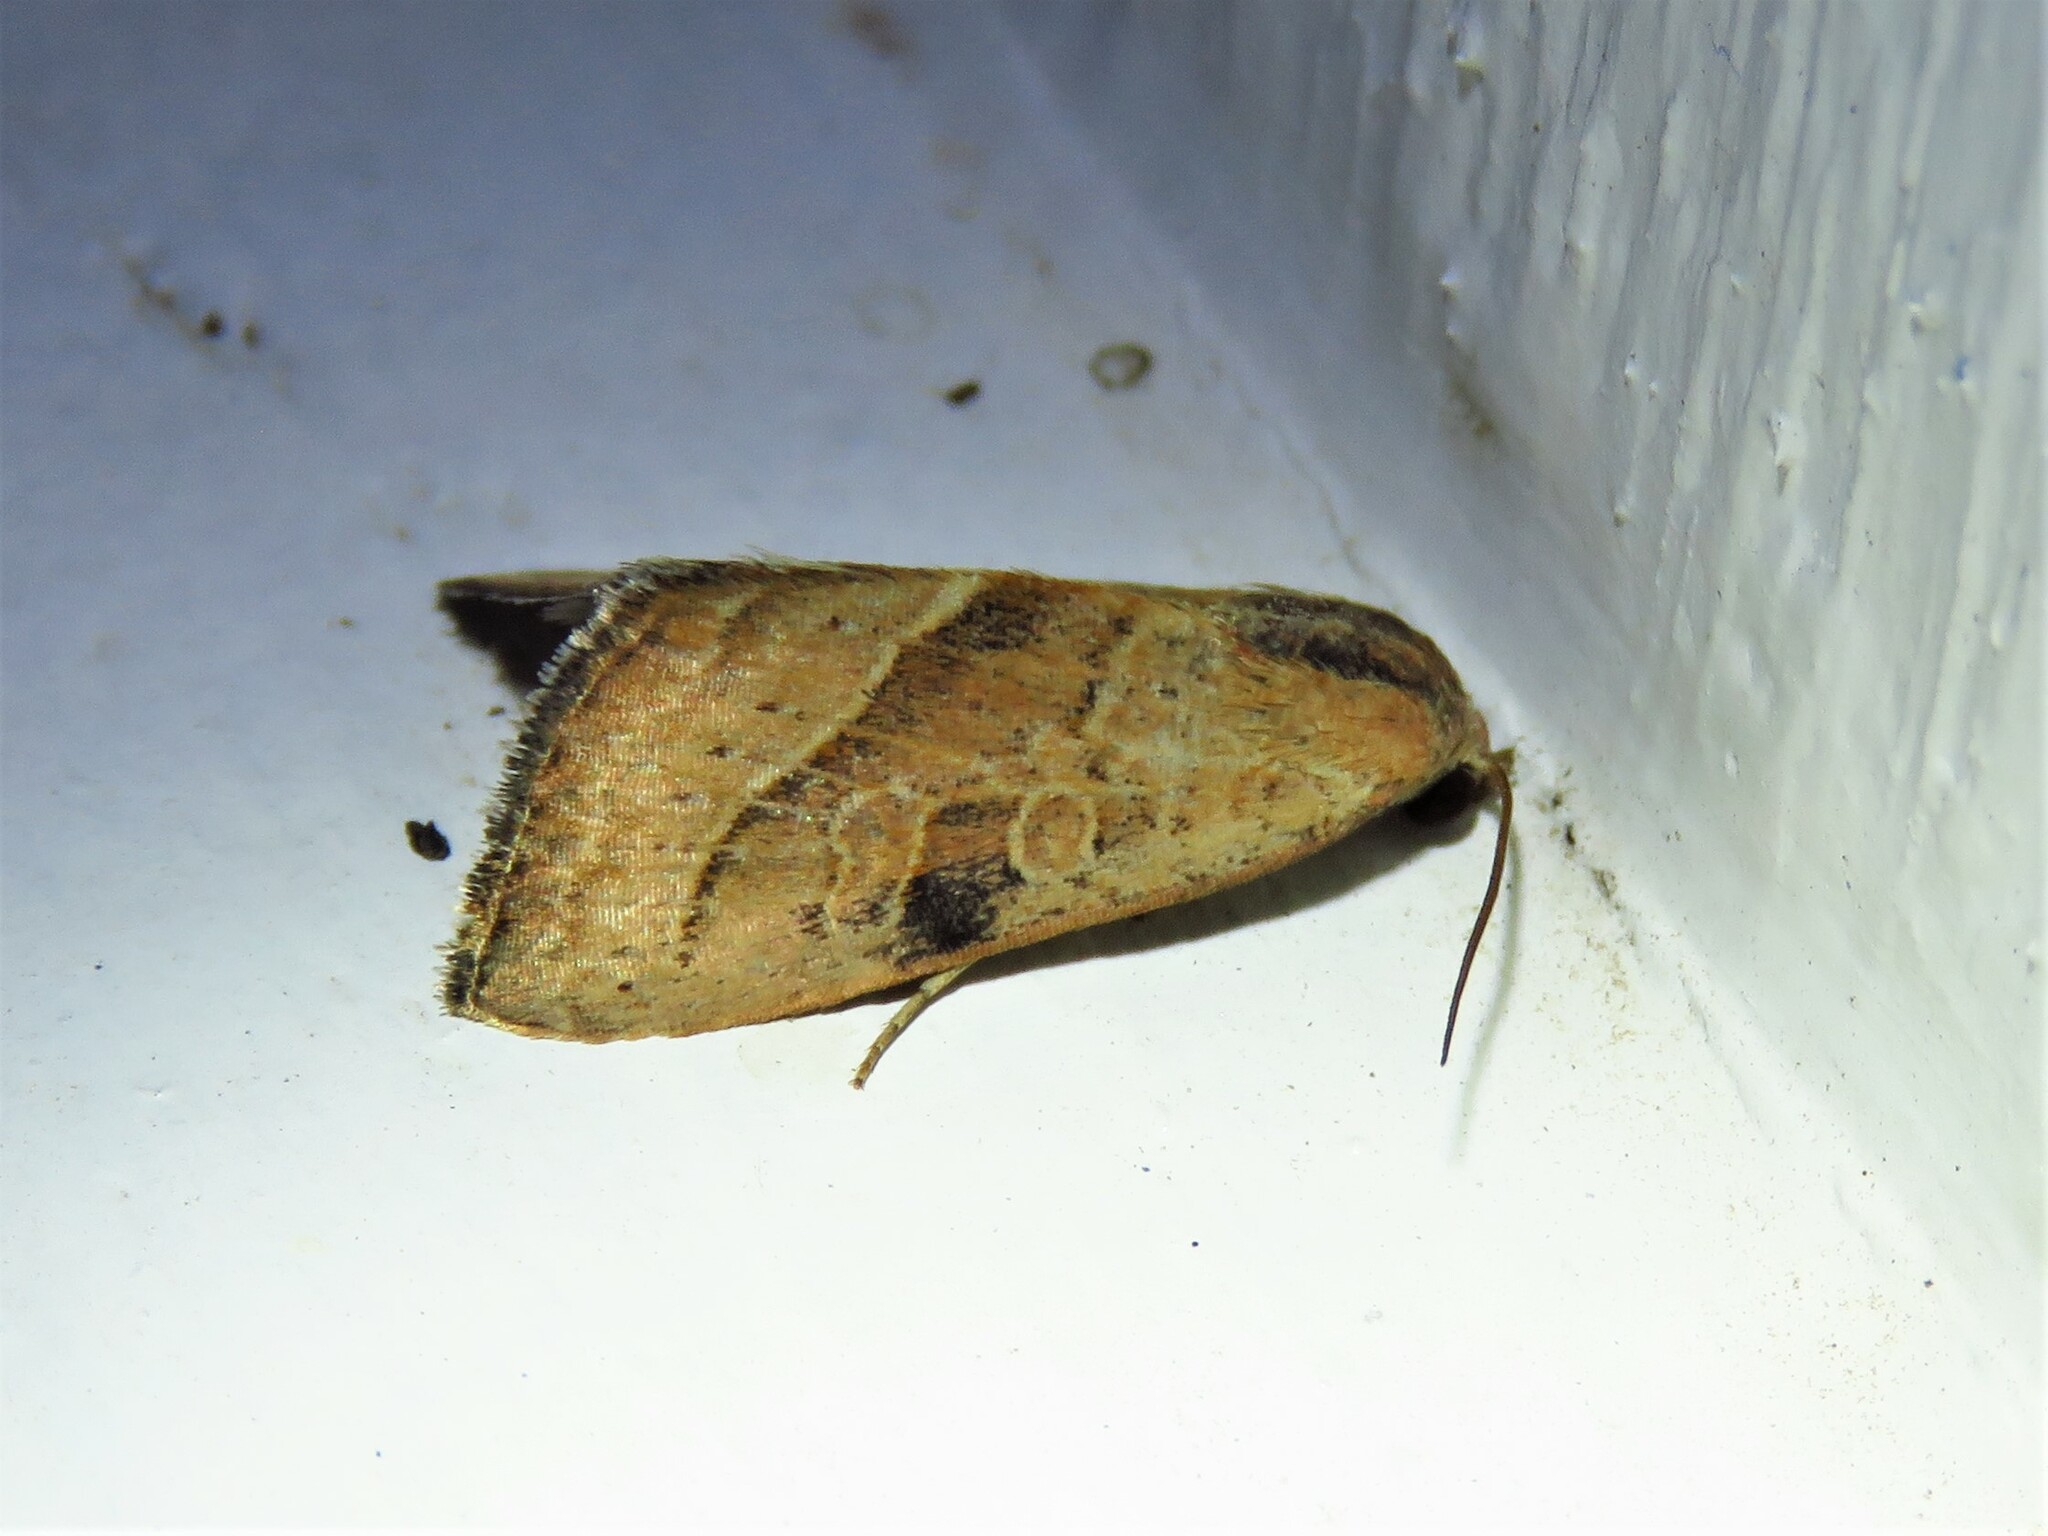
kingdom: Animalia
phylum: Arthropoda
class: Insecta
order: Lepidoptera
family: Noctuidae
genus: Galgula
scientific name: Galgula partita
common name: Wedgeling
